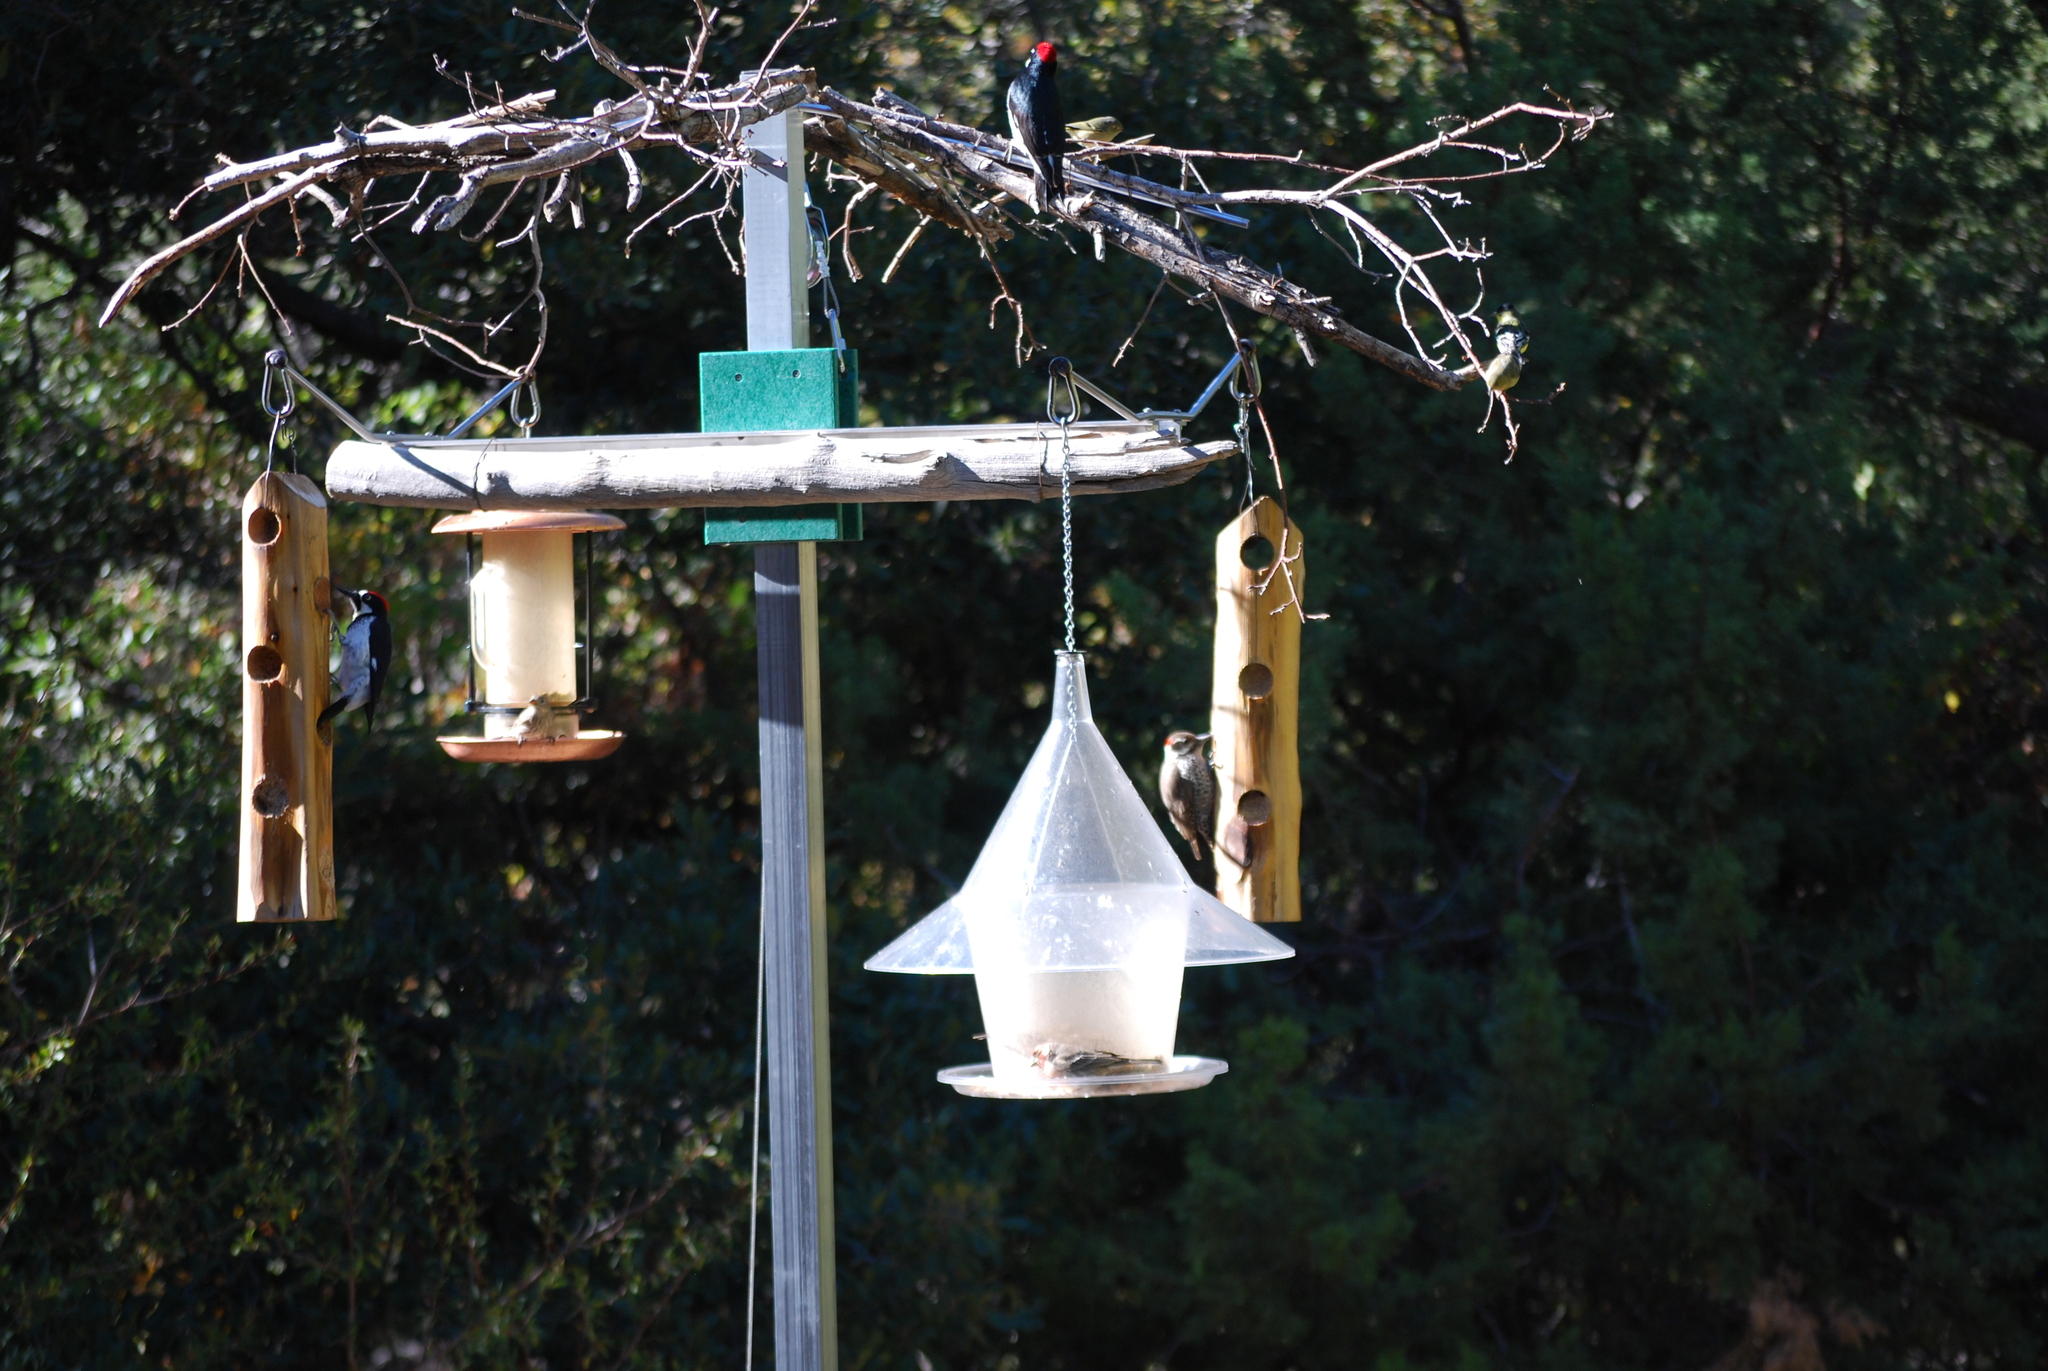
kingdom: Animalia
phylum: Chordata
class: Aves
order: Piciformes
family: Picidae
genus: Leuconotopicus
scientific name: Leuconotopicus arizonae
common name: Arizona woodpecker
